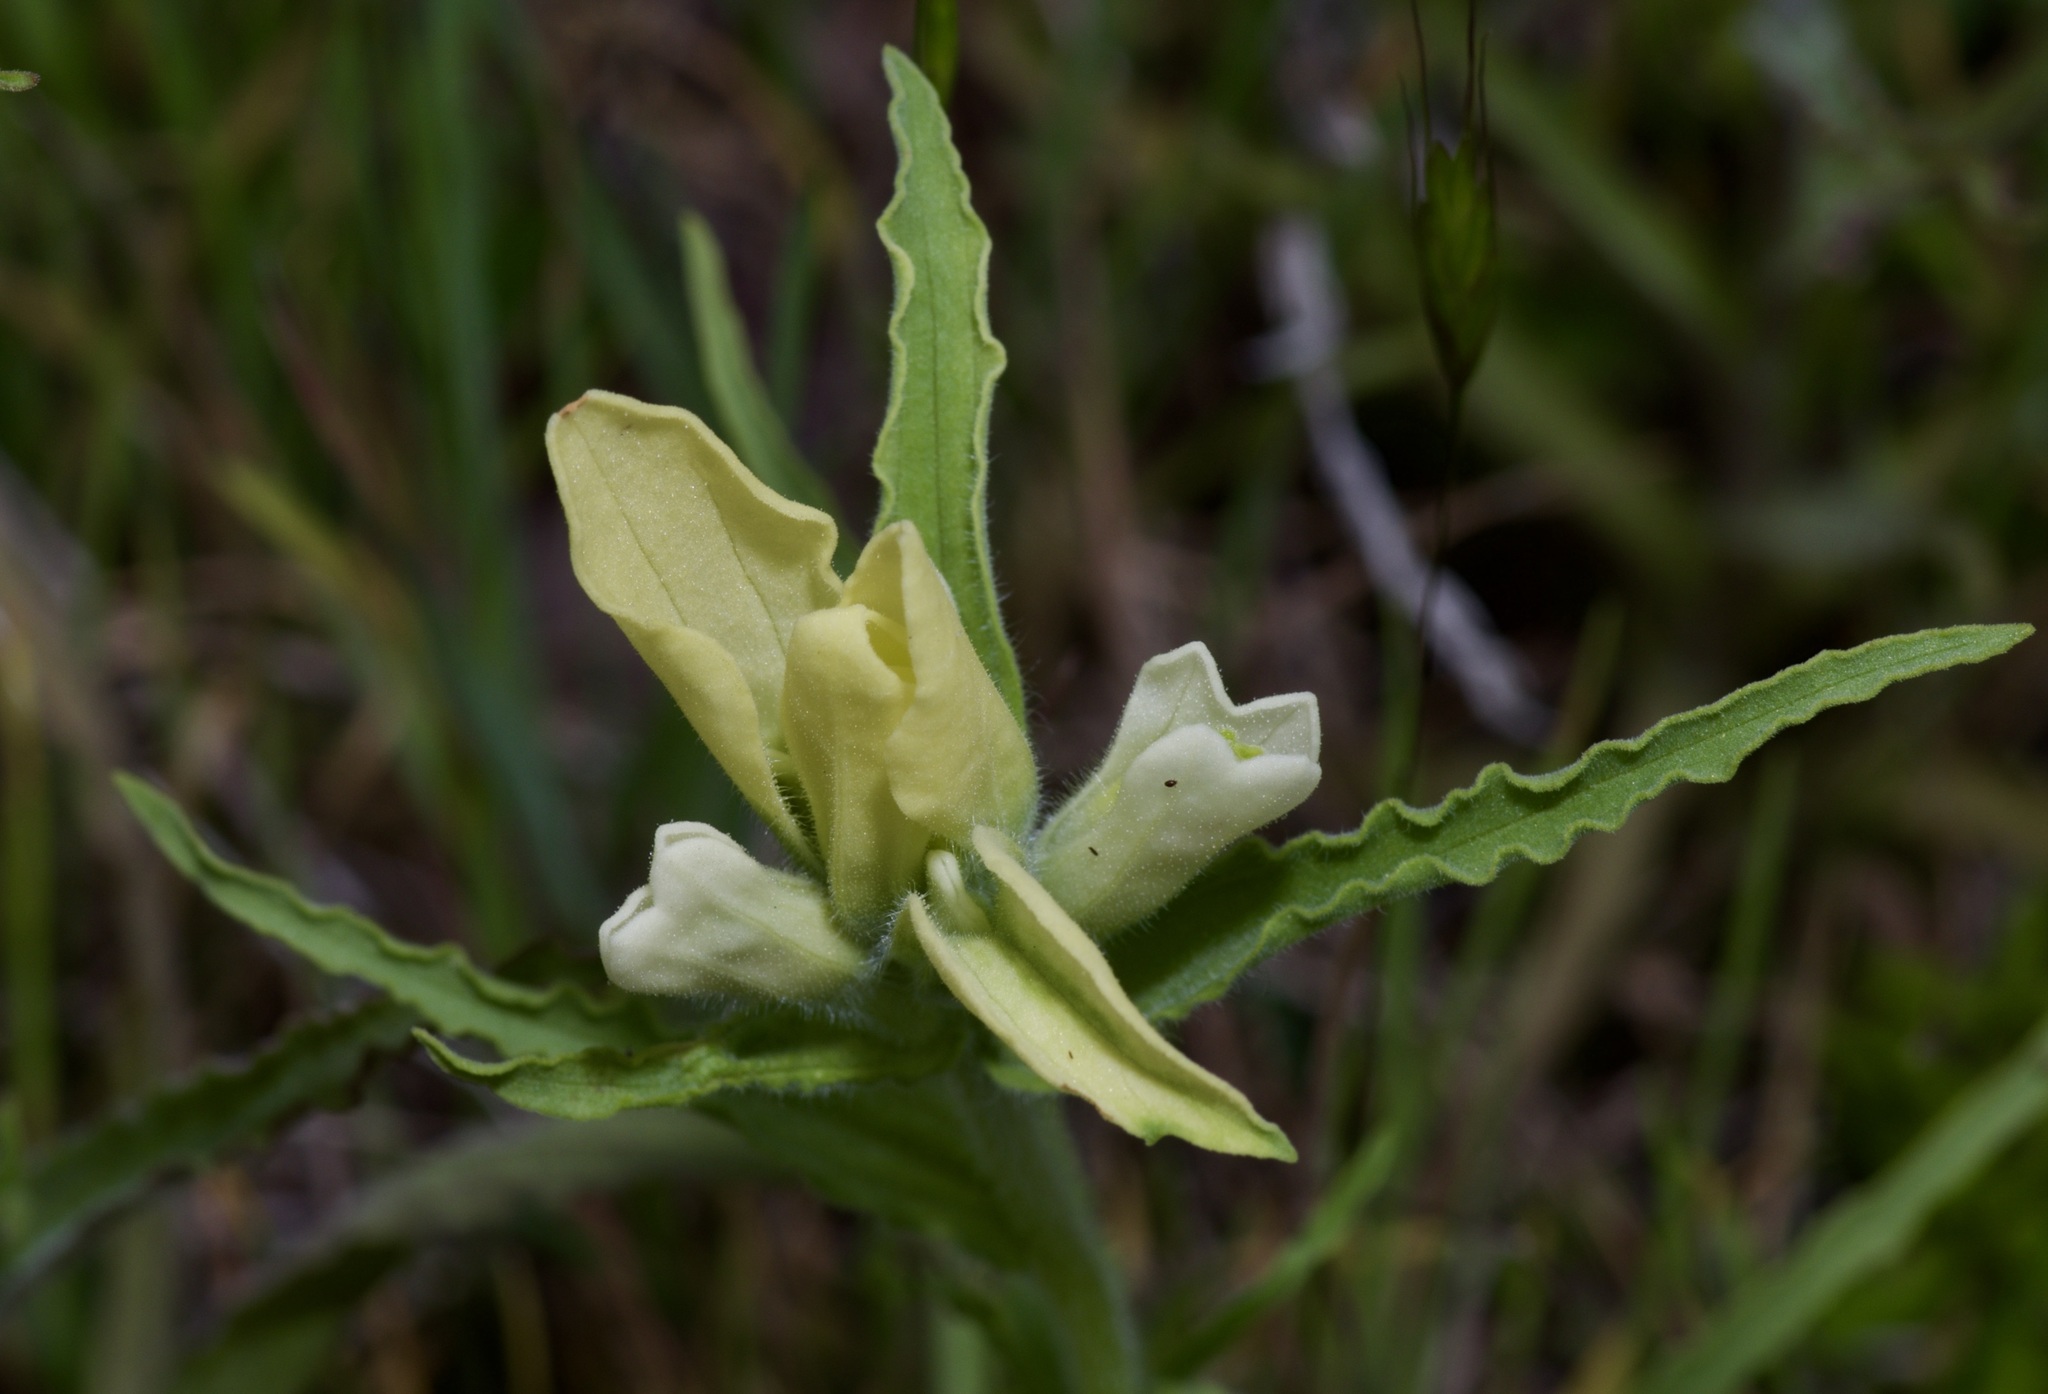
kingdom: Plantae
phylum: Tracheophyta
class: Magnoliopsida
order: Lamiales
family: Orobanchaceae
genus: Castilleja
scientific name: Castilleja indivisa
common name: Texas paintbrush
